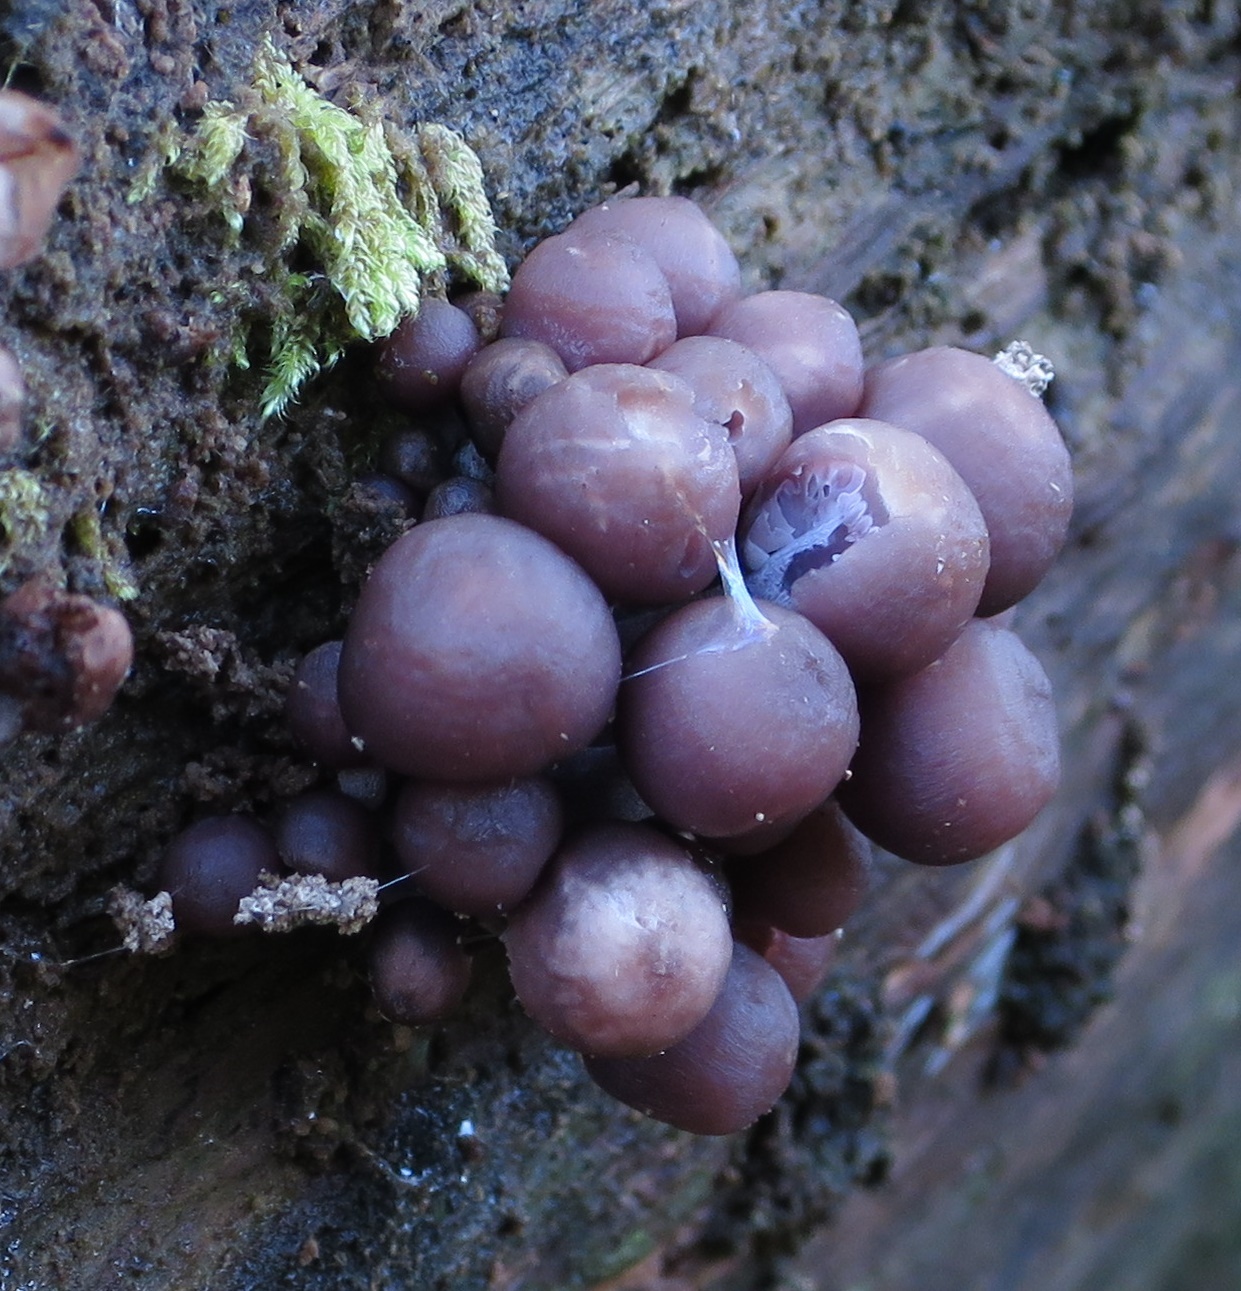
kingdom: Fungi
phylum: Basidiomycota
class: Agaricomycetes
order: Agaricales
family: Mycenaceae
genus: Mycena
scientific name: Mycena clarkeana
